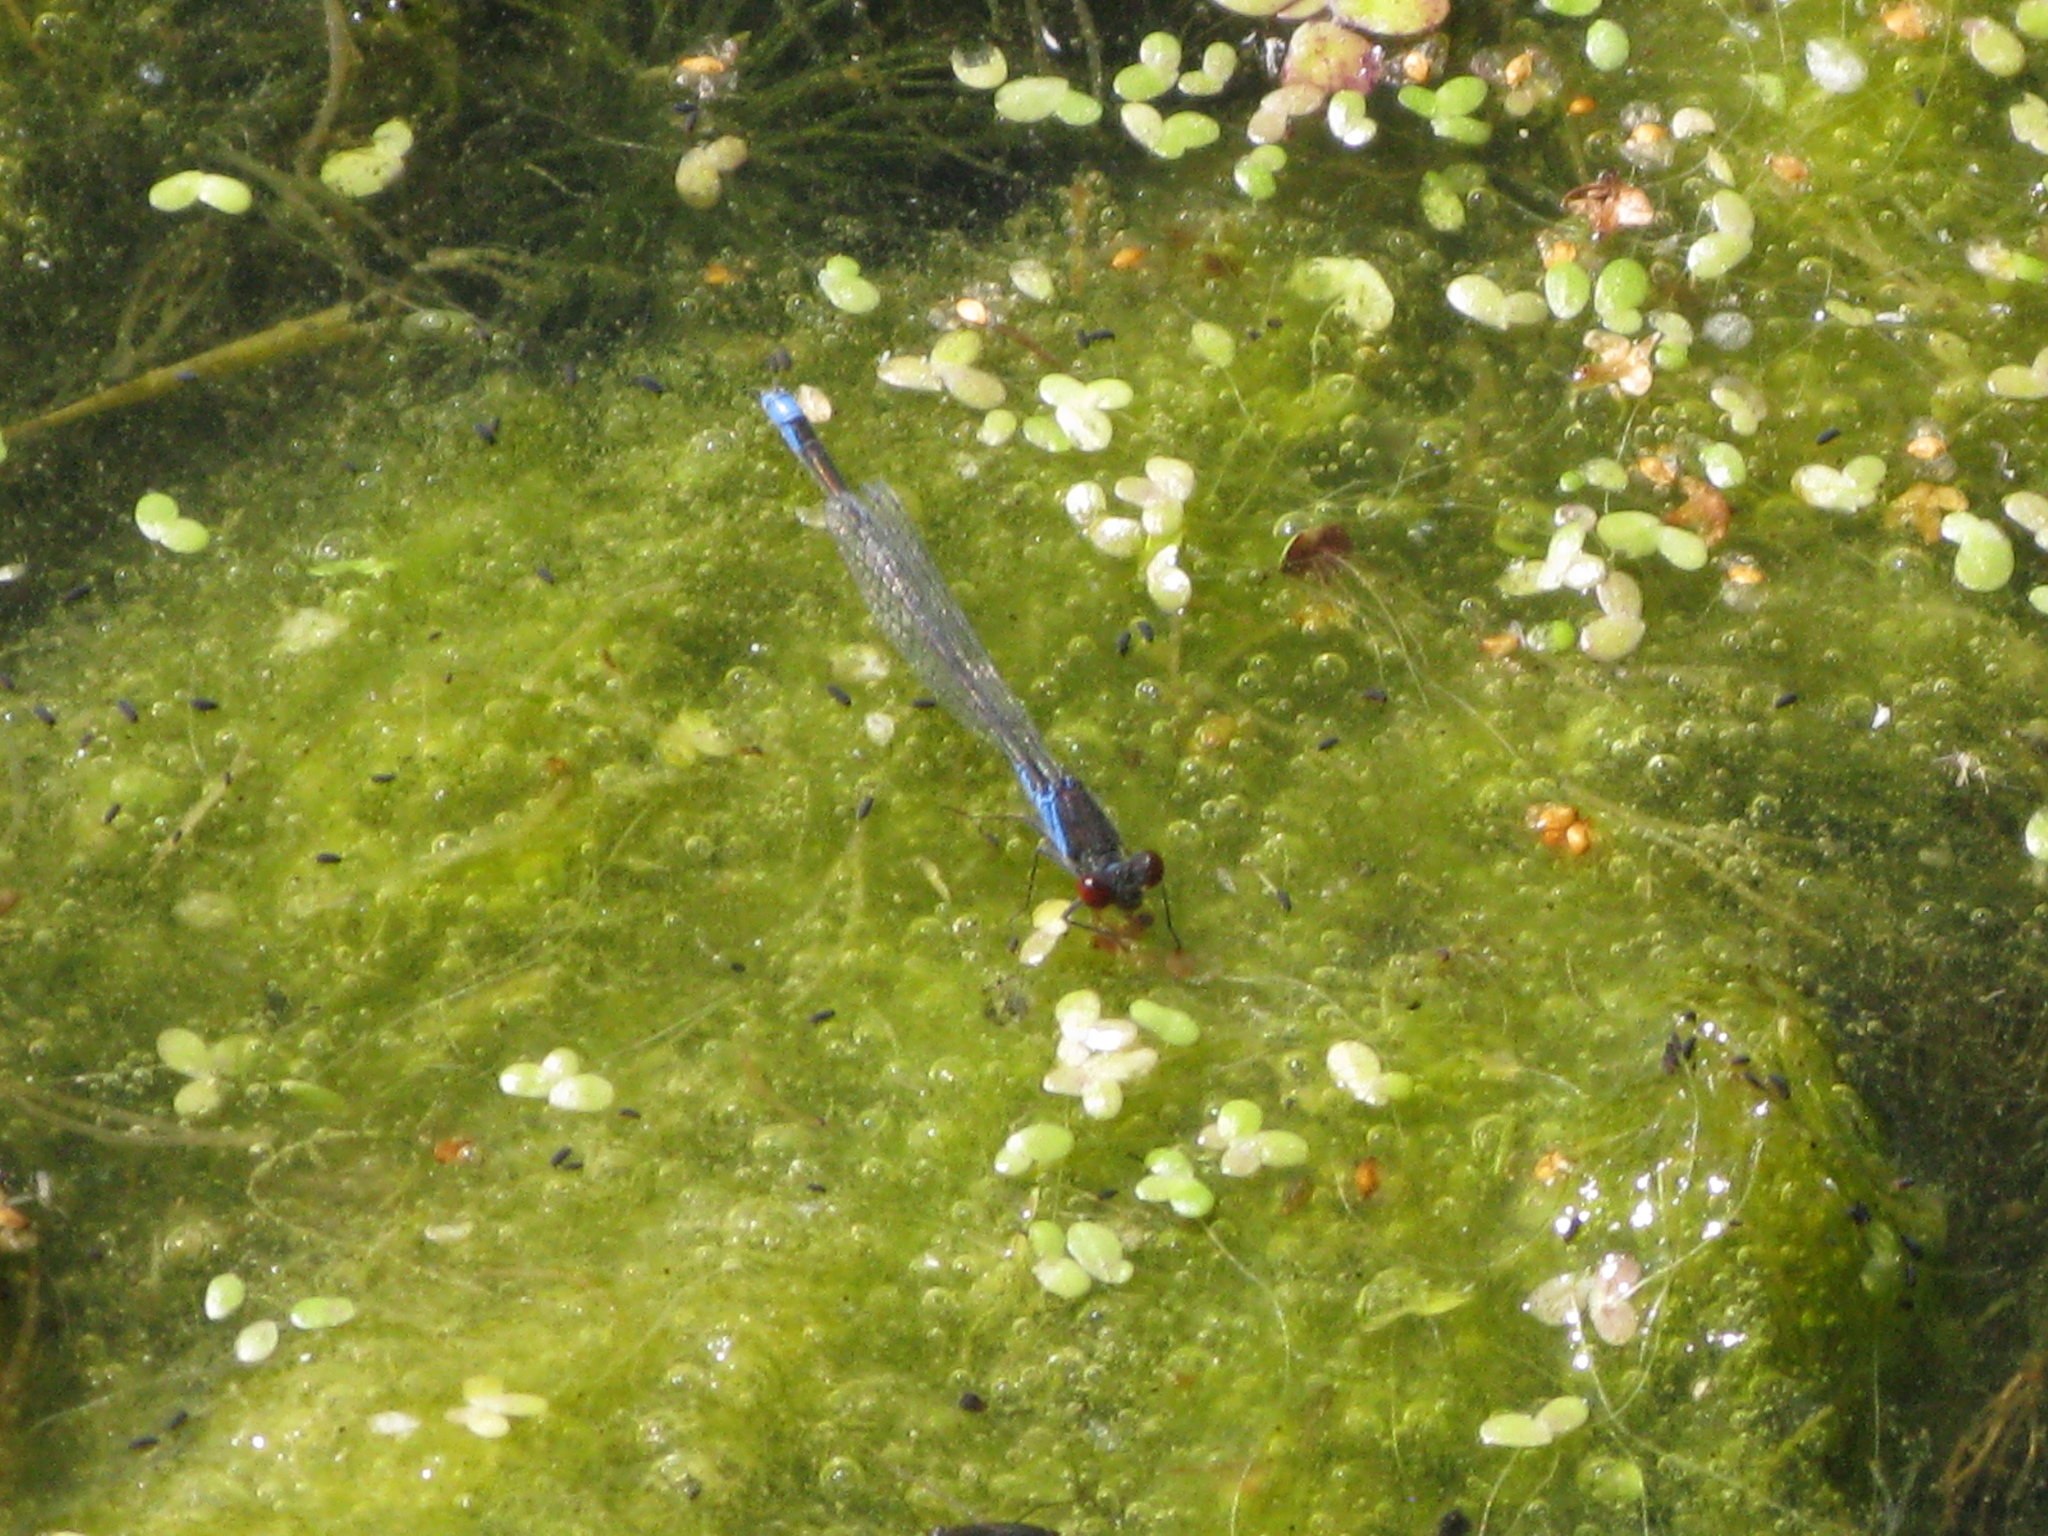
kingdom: Animalia
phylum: Arthropoda
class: Insecta
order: Odonata
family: Coenagrionidae
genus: Erythromma
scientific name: Erythromma viridulum
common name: Small red-eyed damselfly
